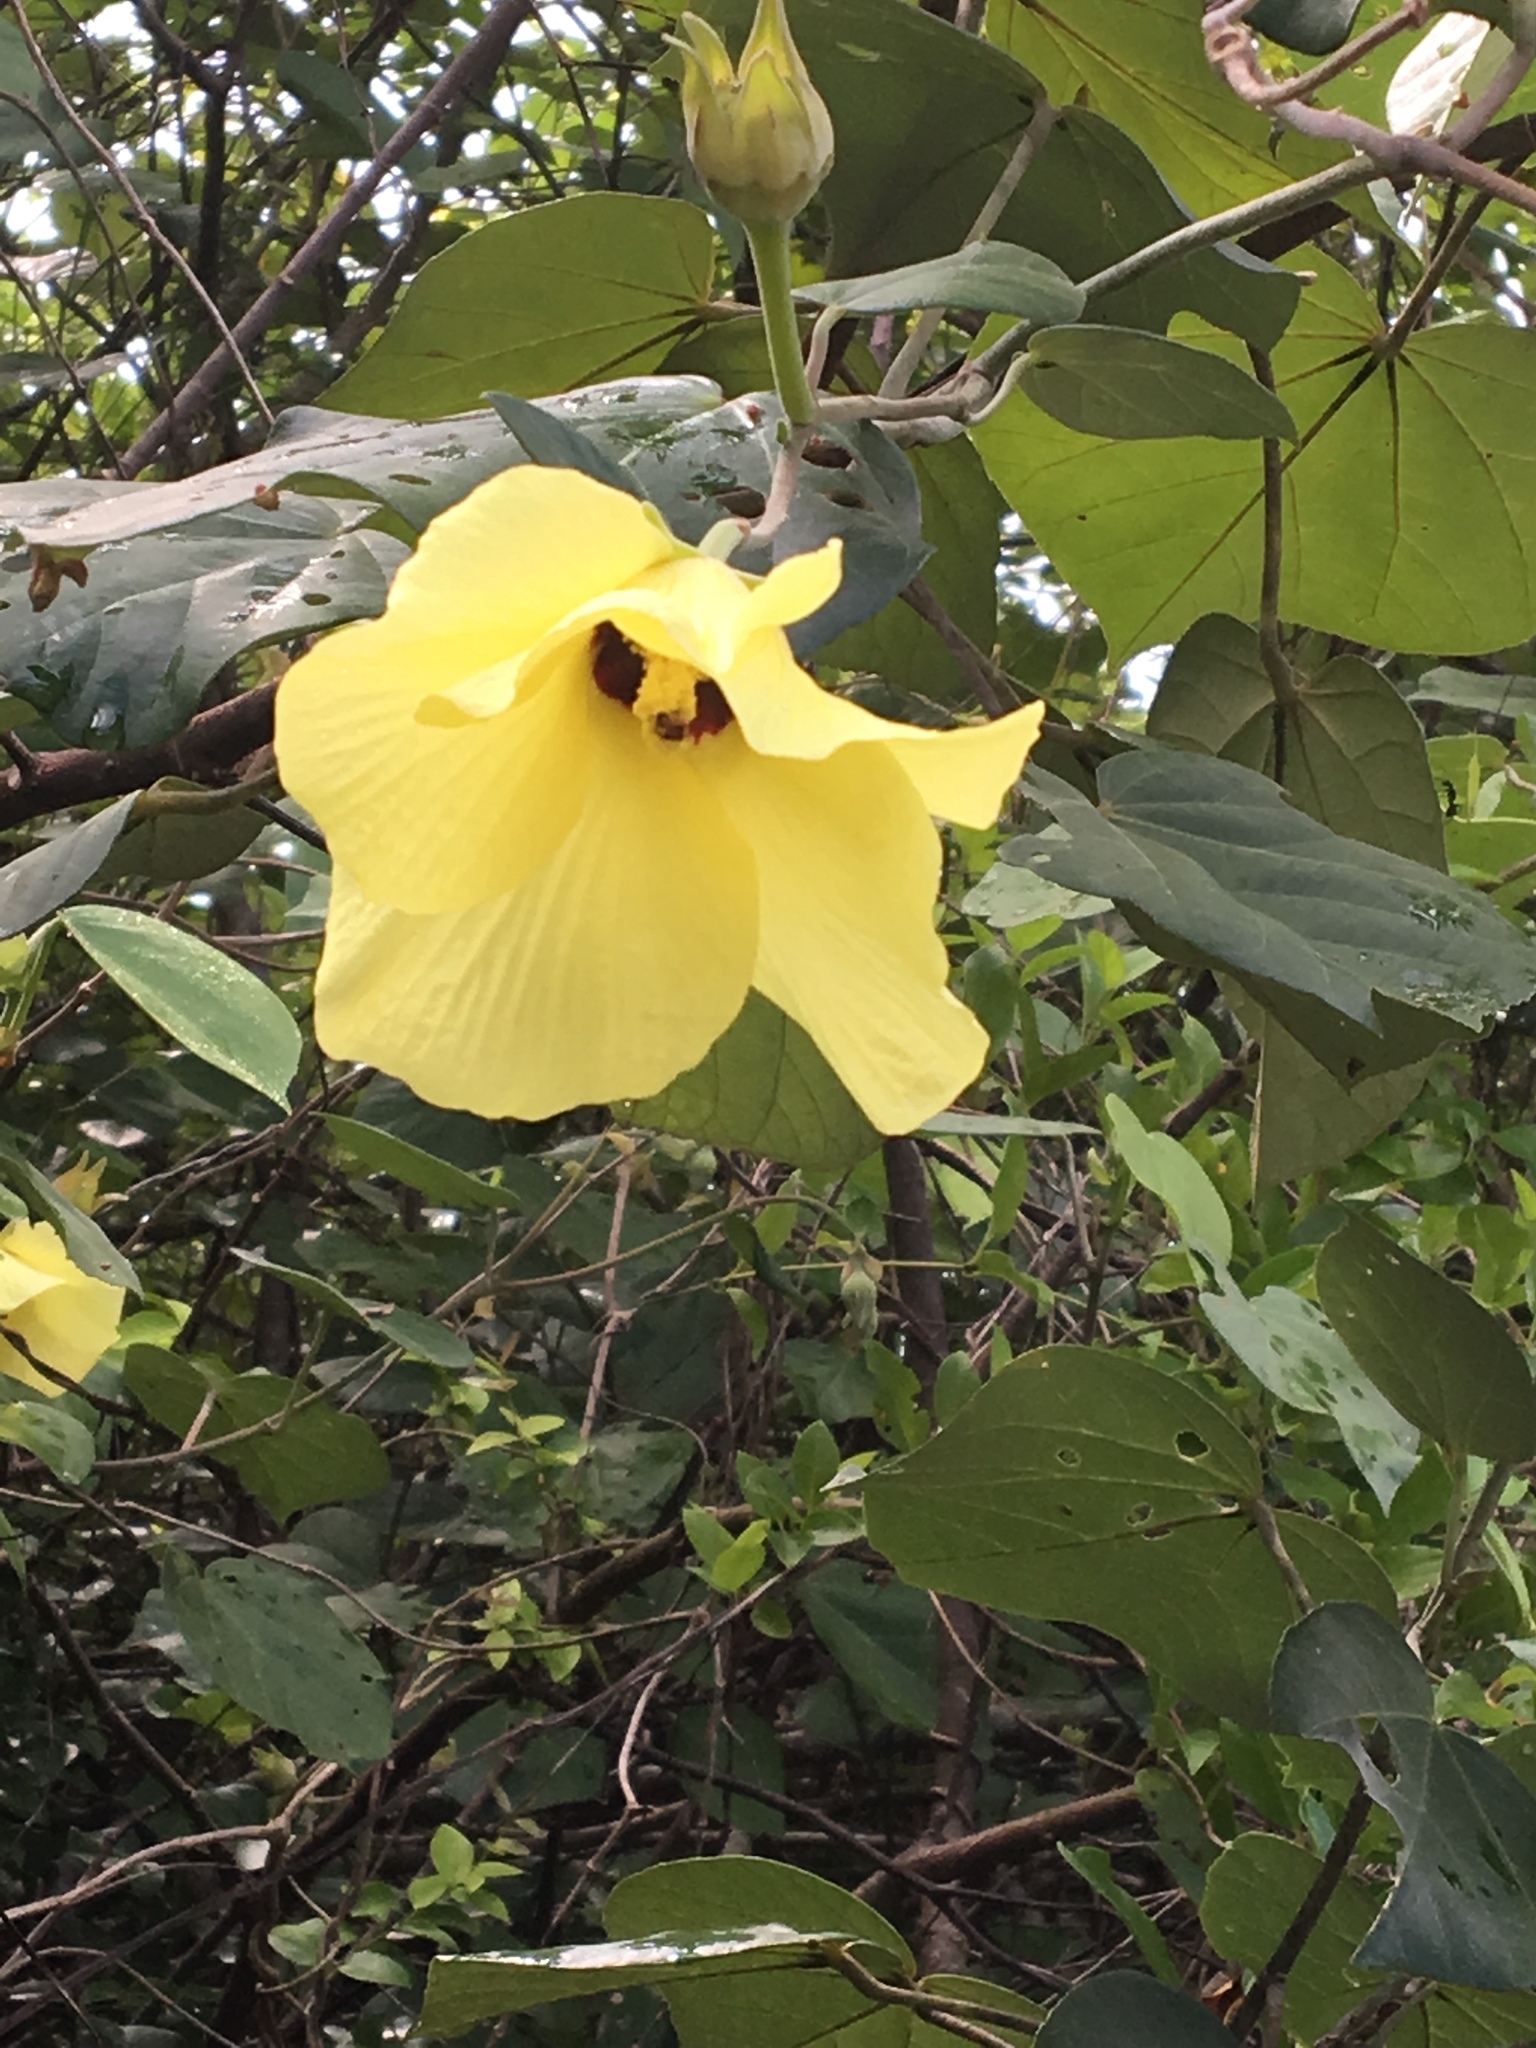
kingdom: Plantae
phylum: Tracheophyta
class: Magnoliopsida
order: Malvales
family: Malvaceae
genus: Talipariti
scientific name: Talipariti tiliaceum
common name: Sea hibiscus
